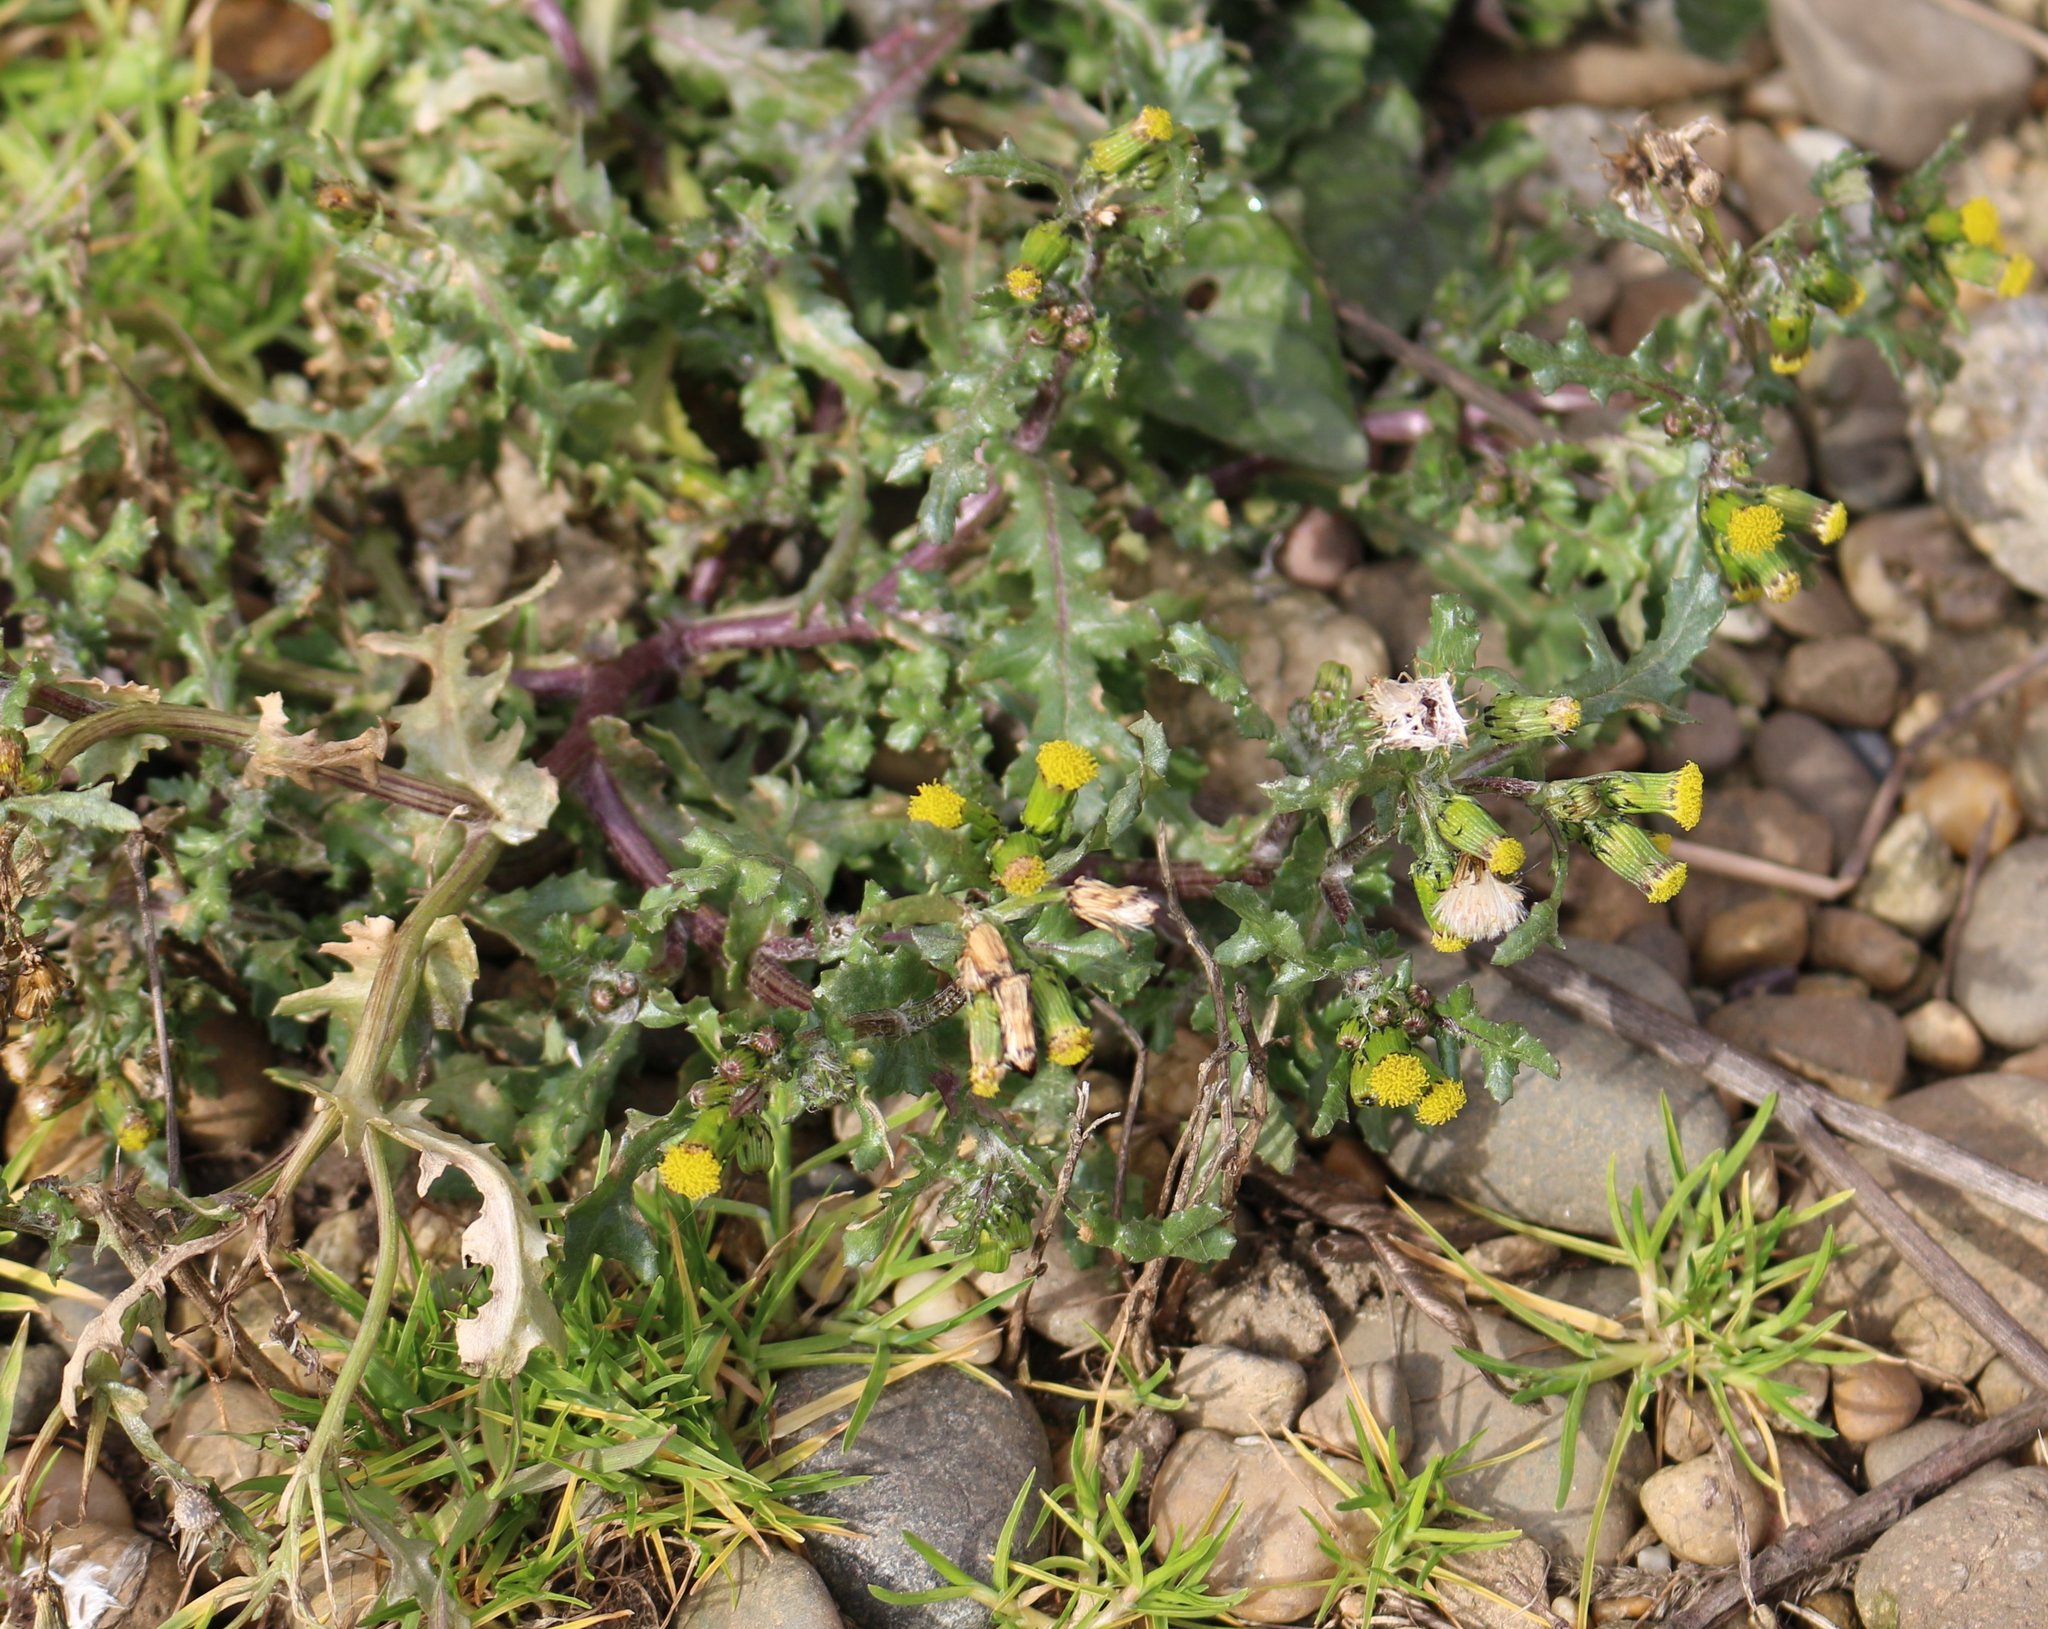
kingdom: Plantae
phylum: Tracheophyta
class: Magnoliopsida
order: Asterales
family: Asteraceae
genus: Senecio
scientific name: Senecio vulgaris
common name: Old-man-in-the-spring
